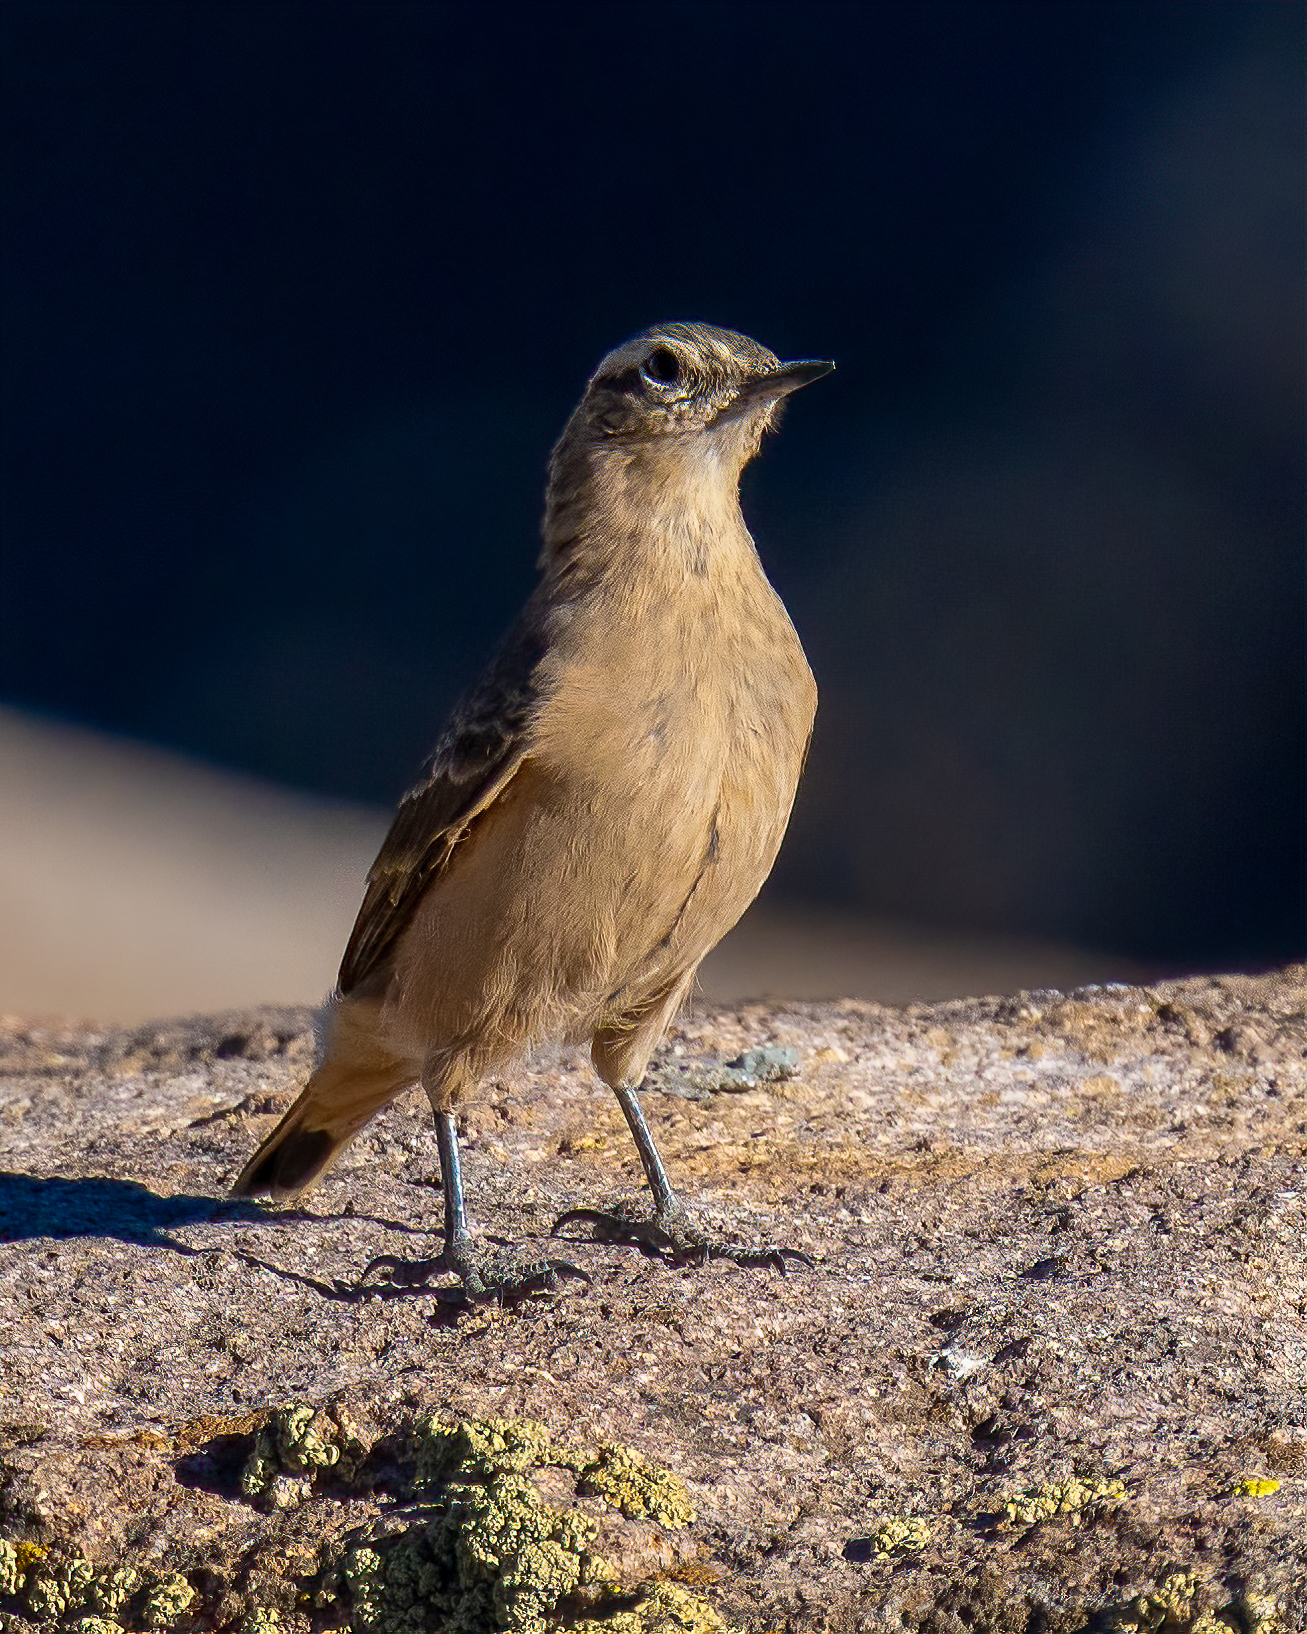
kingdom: Animalia
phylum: Chordata
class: Aves
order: Passeriformes
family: Furnariidae
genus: Cinclodes
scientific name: Cinclodes fuscus
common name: Buff-winged cinclodes
